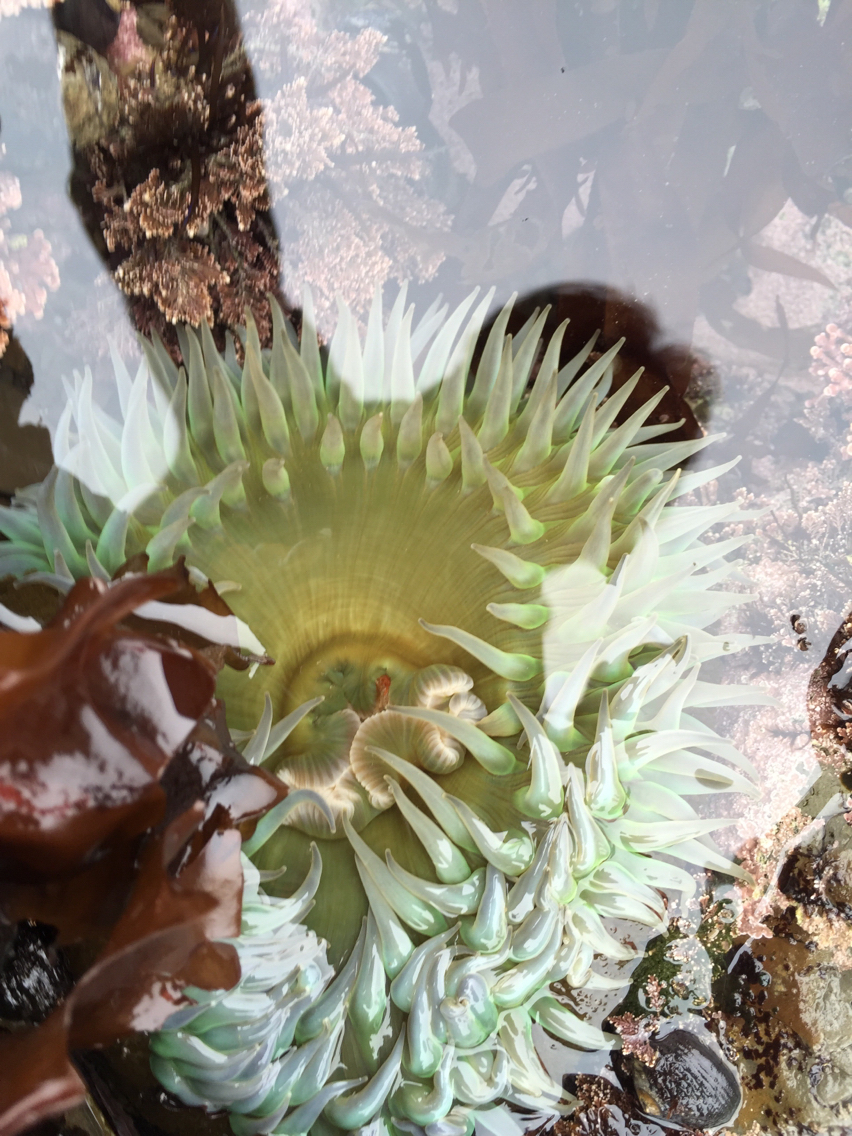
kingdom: Animalia
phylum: Cnidaria
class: Anthozoa
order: Actiniaria
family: Actiniidae
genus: Anthopleura
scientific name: Anthopleura xanthogrammica
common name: Giant green anemone
